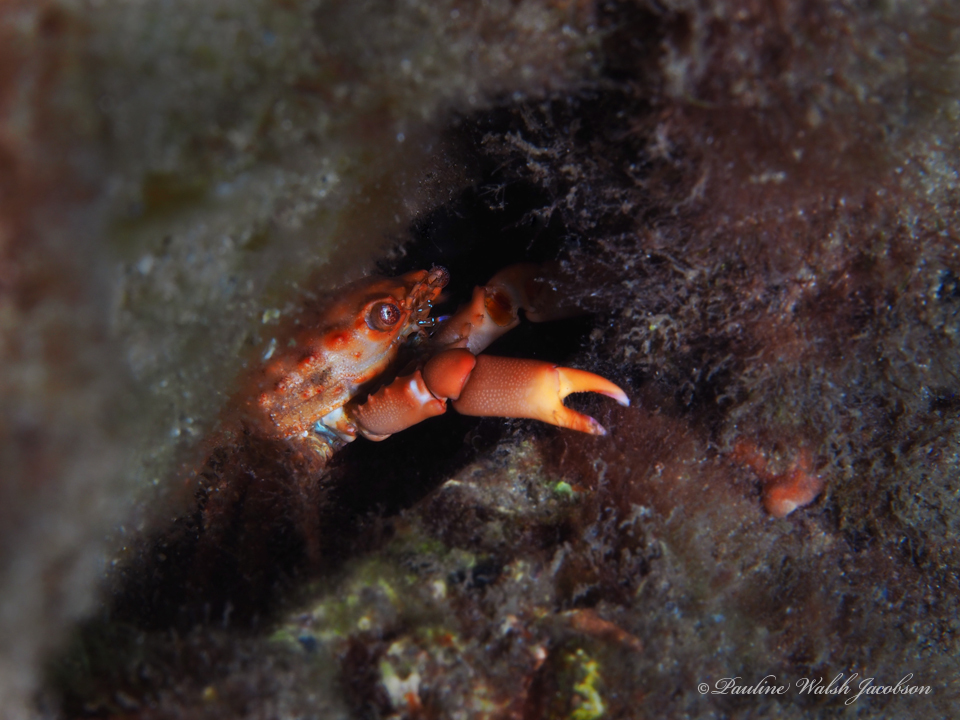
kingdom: Animalia
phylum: Arthropoda
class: Malacostraca
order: Decapoda
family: Mithracidae
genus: Mithraculus
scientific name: Mithraculus forceps
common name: Red-ridged clinging crab
